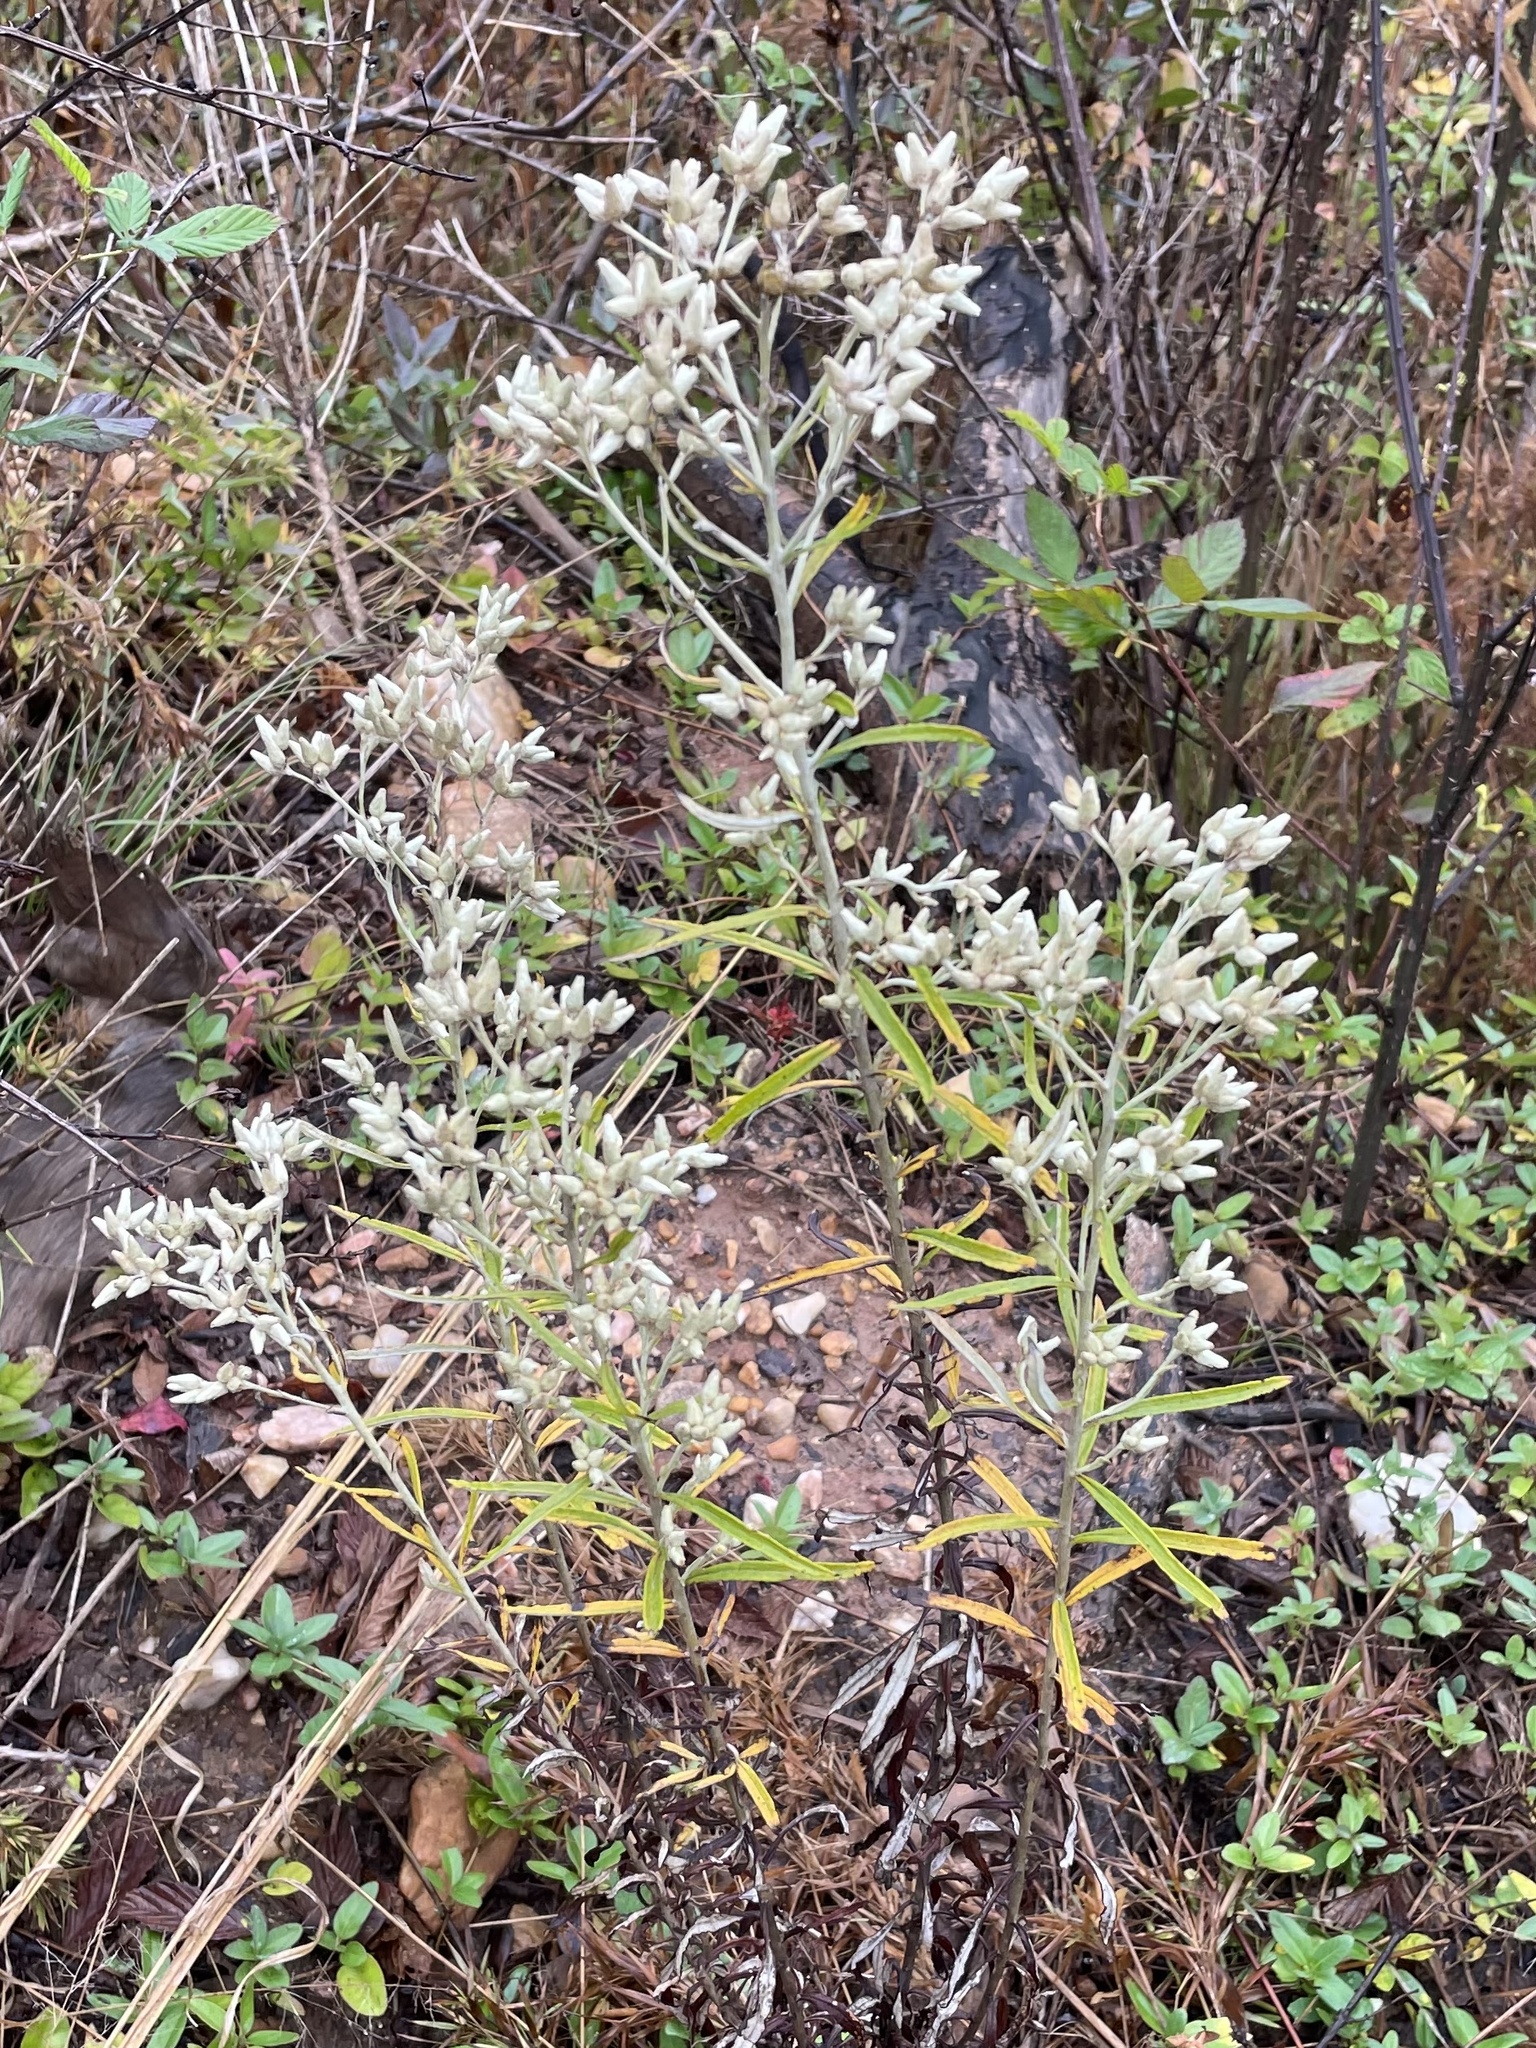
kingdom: Plantae
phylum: Tracheophyta
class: Magnoliopsida
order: Asterales
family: Asteraceae
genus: Pseudognaphalium
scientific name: Pseudognaphalium obtusifolium
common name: Eastern rabbit-tobacco
